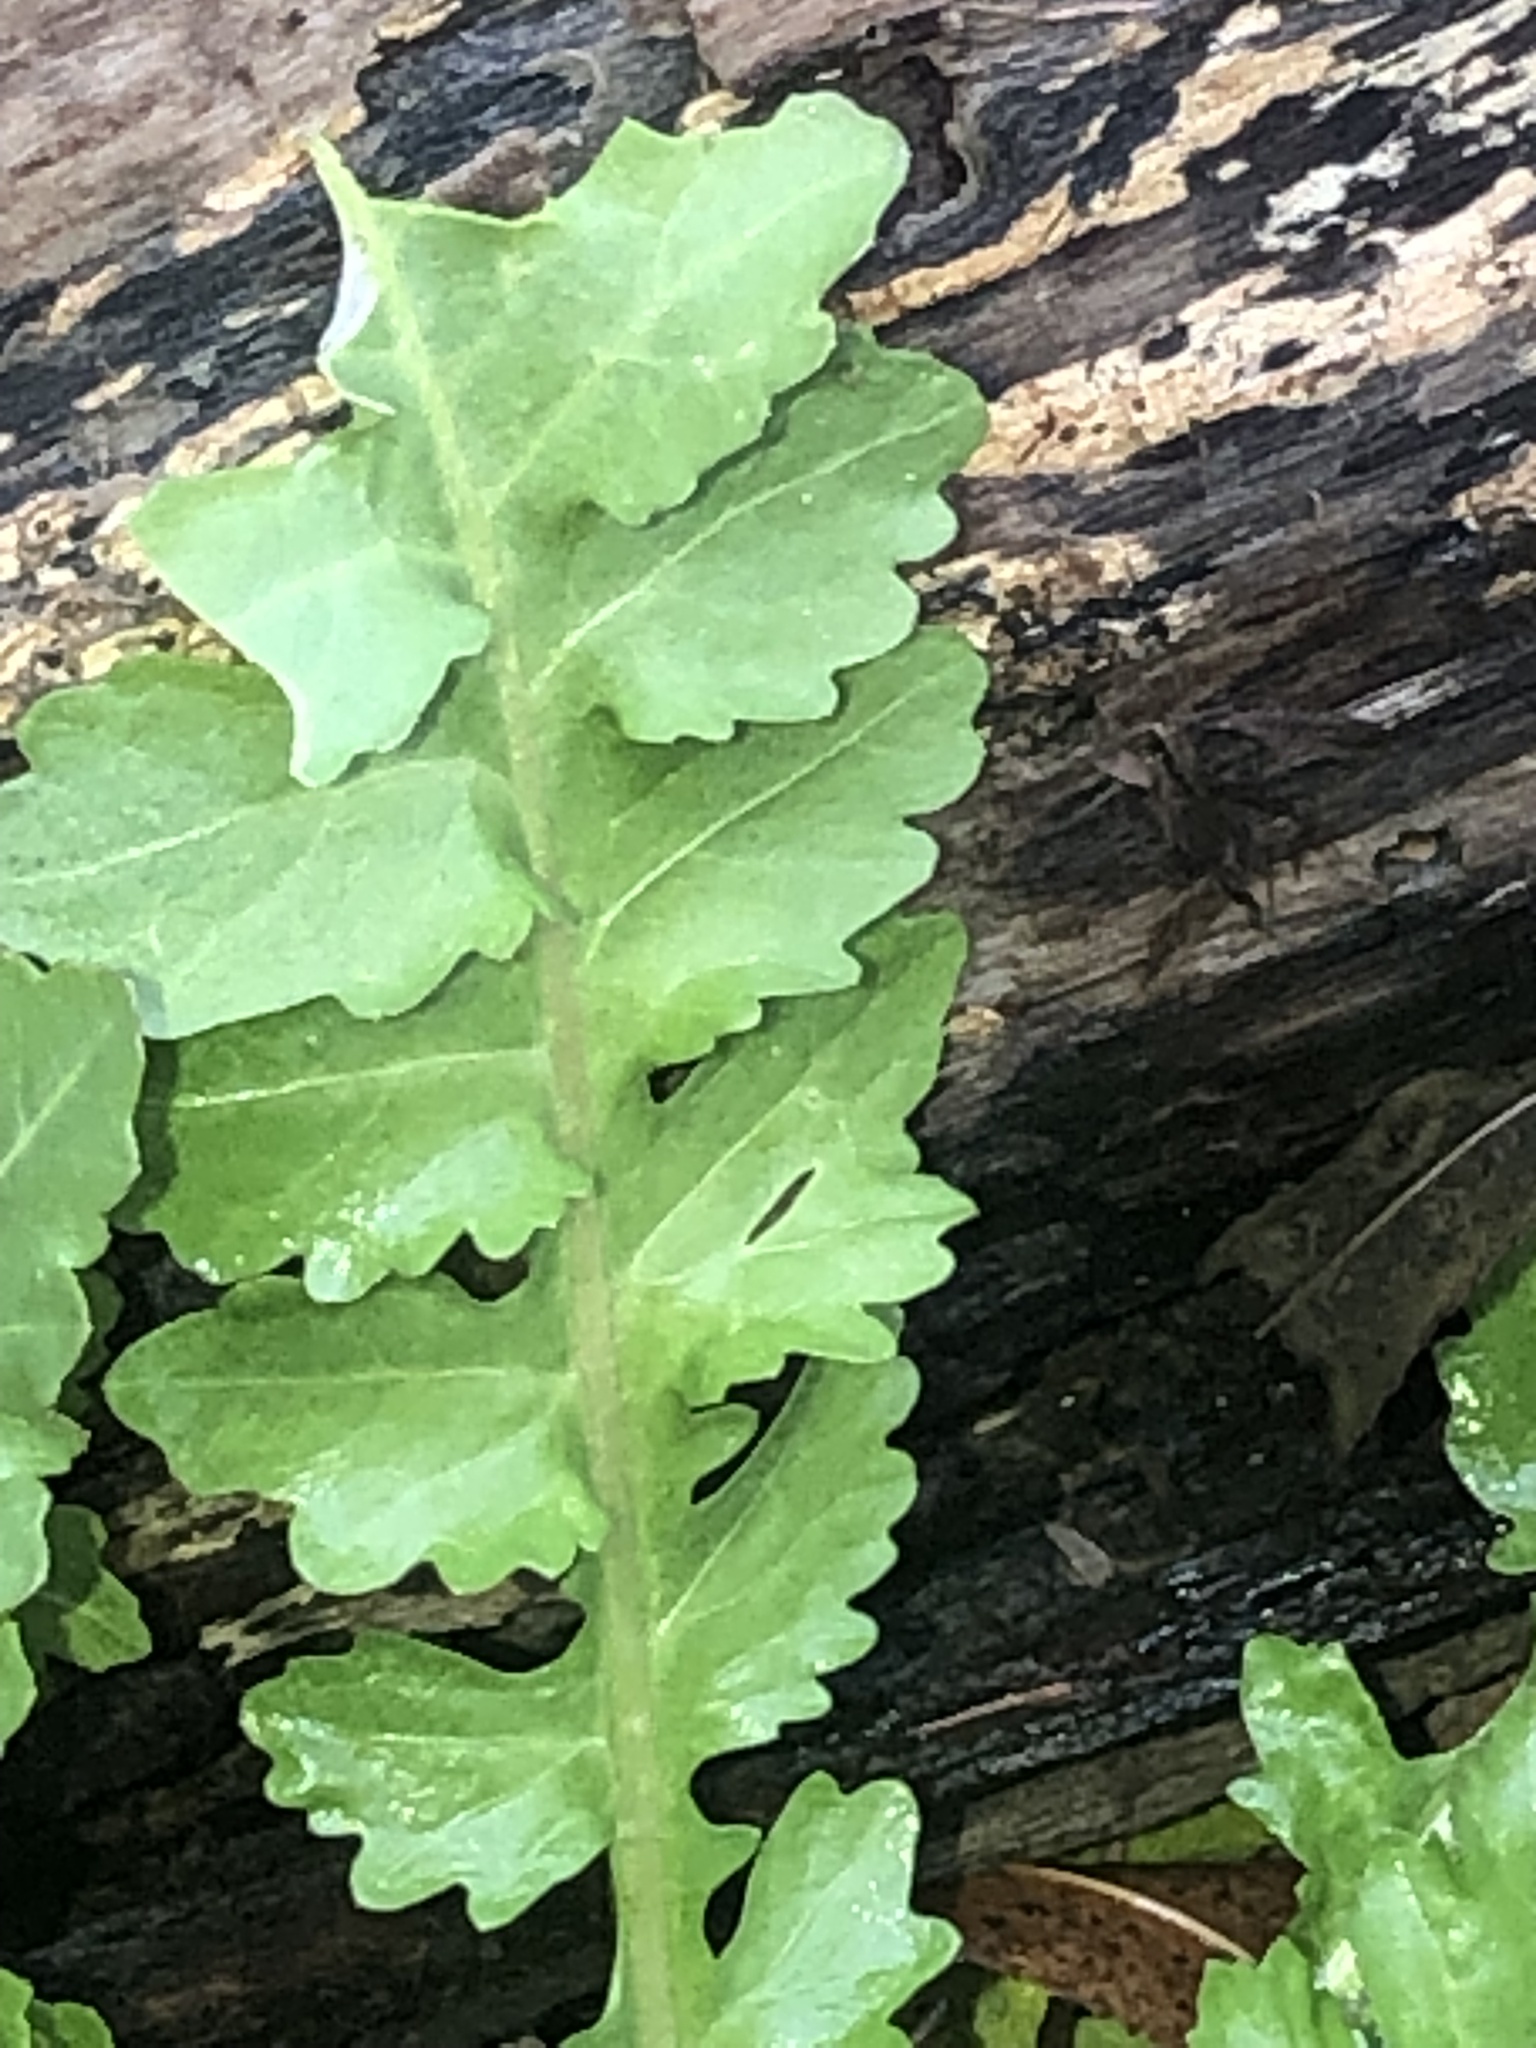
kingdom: Plantae
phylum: Tracheophyta
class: Magnoliopsida
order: Brassicales
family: Brassicaceae
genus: Rorippa
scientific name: Rorippa sessiliflora
